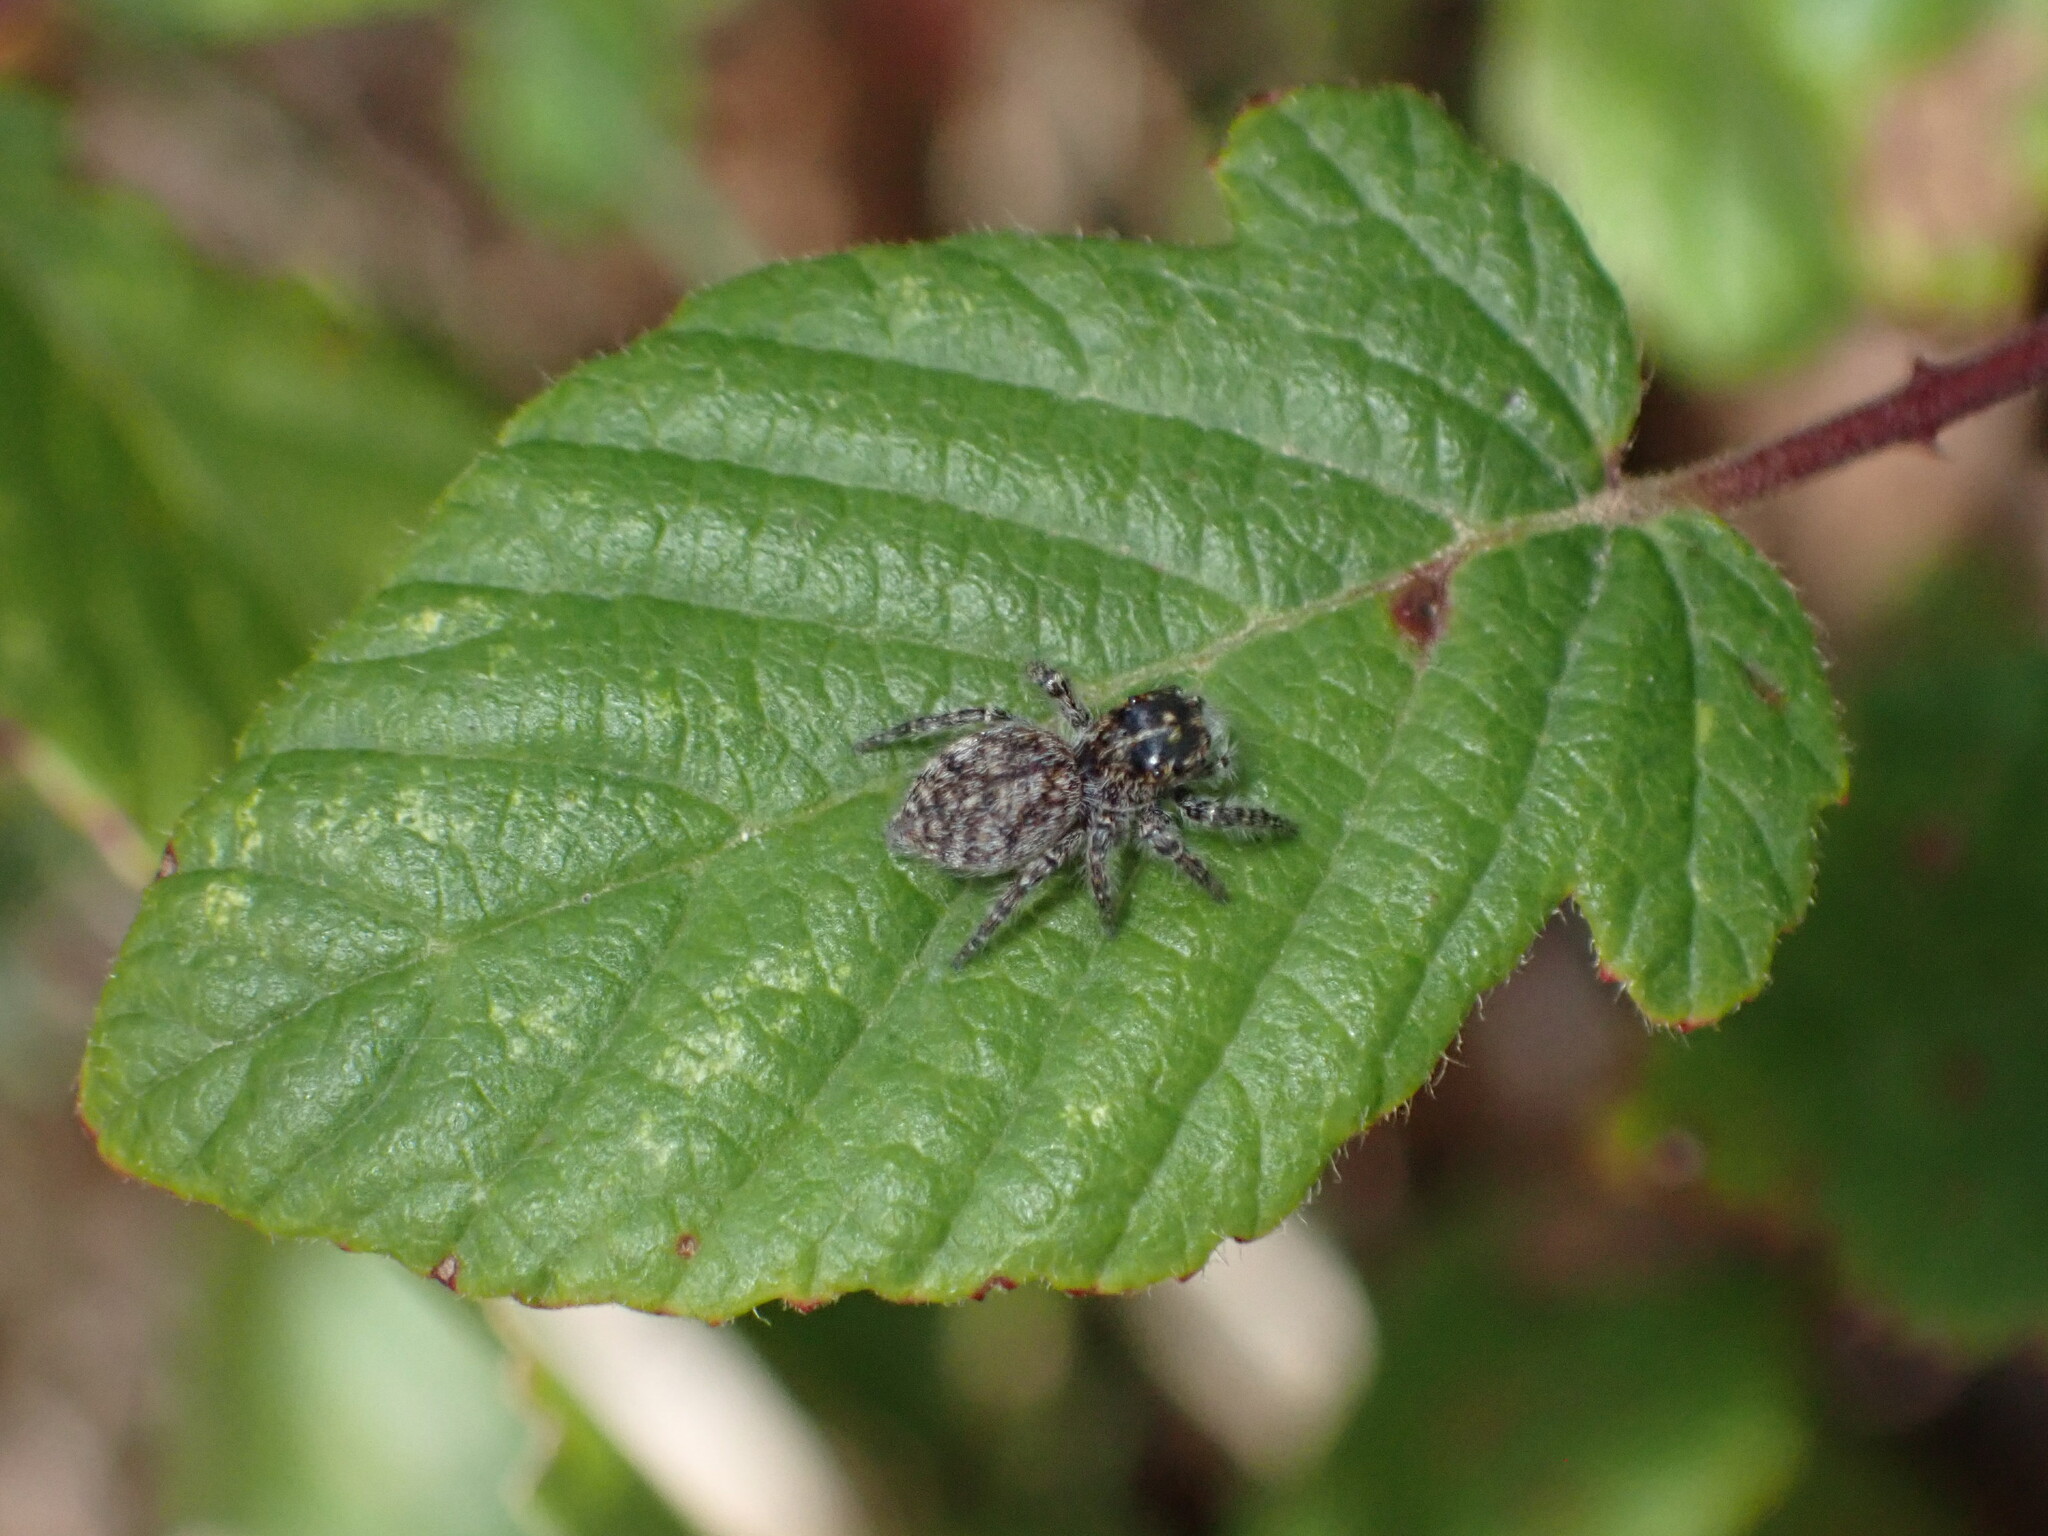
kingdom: Animalia
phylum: Arthropoda
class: Arachnida
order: Araneae
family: Salticidae
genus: Philaeus
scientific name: Philaeus chrysops
